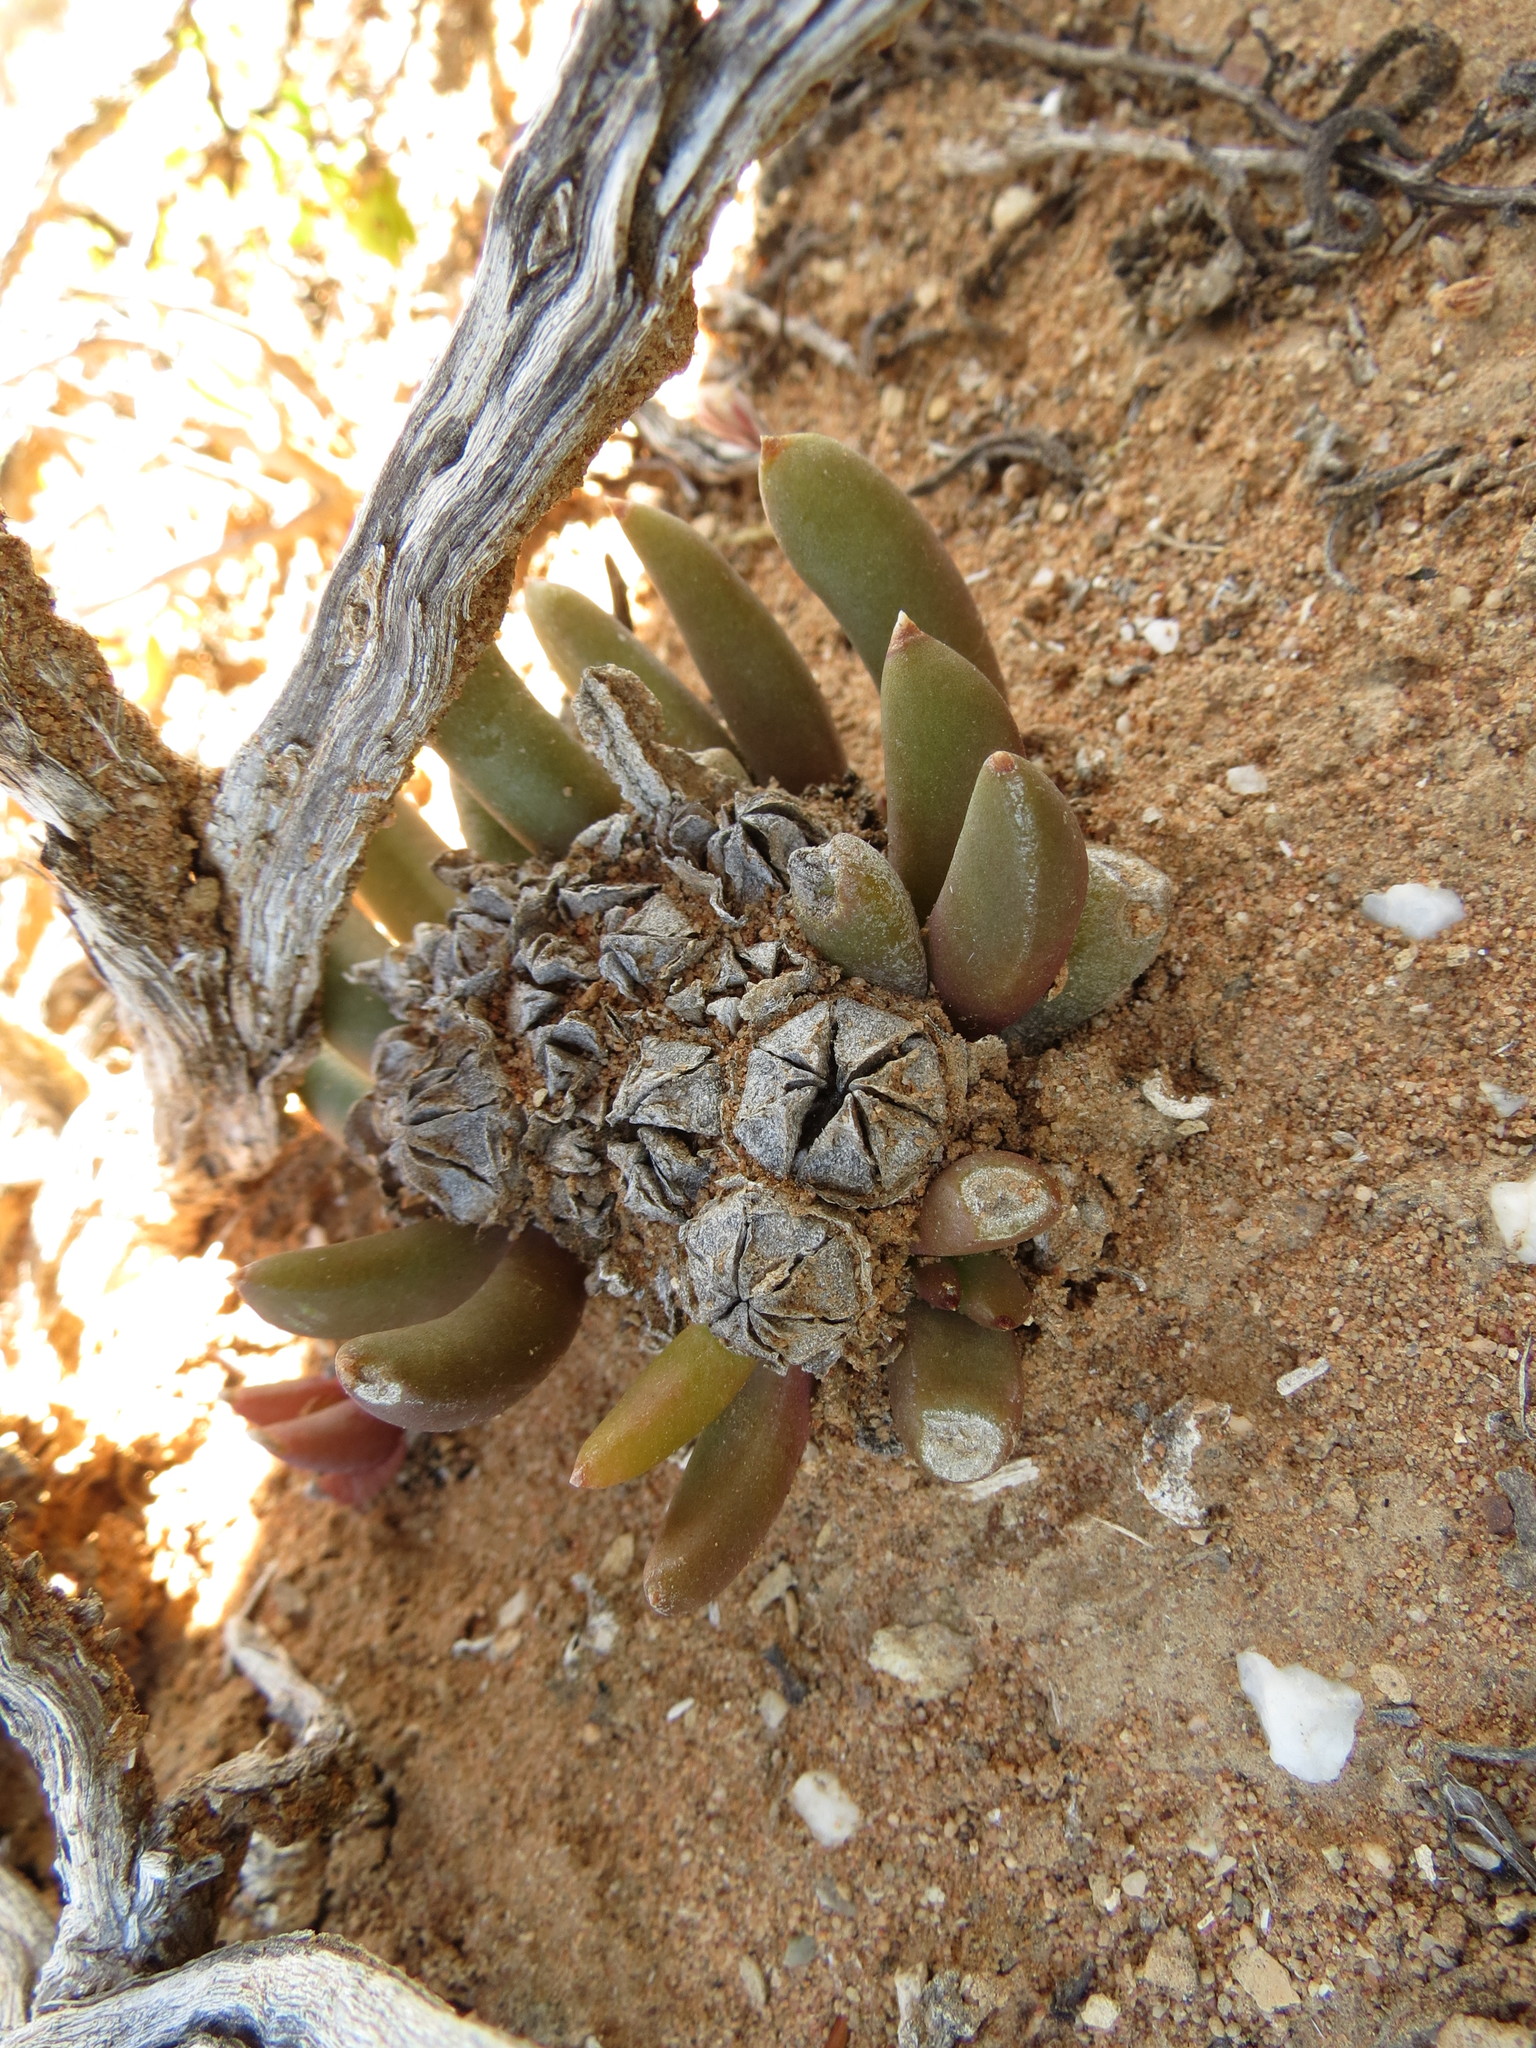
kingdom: Plantae
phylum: Tracheophyta
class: Magnoliopsida
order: Caryophyllales
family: Aizoaceae
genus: Glottiphyllum
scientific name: Glottiphyllum fergusoniae
